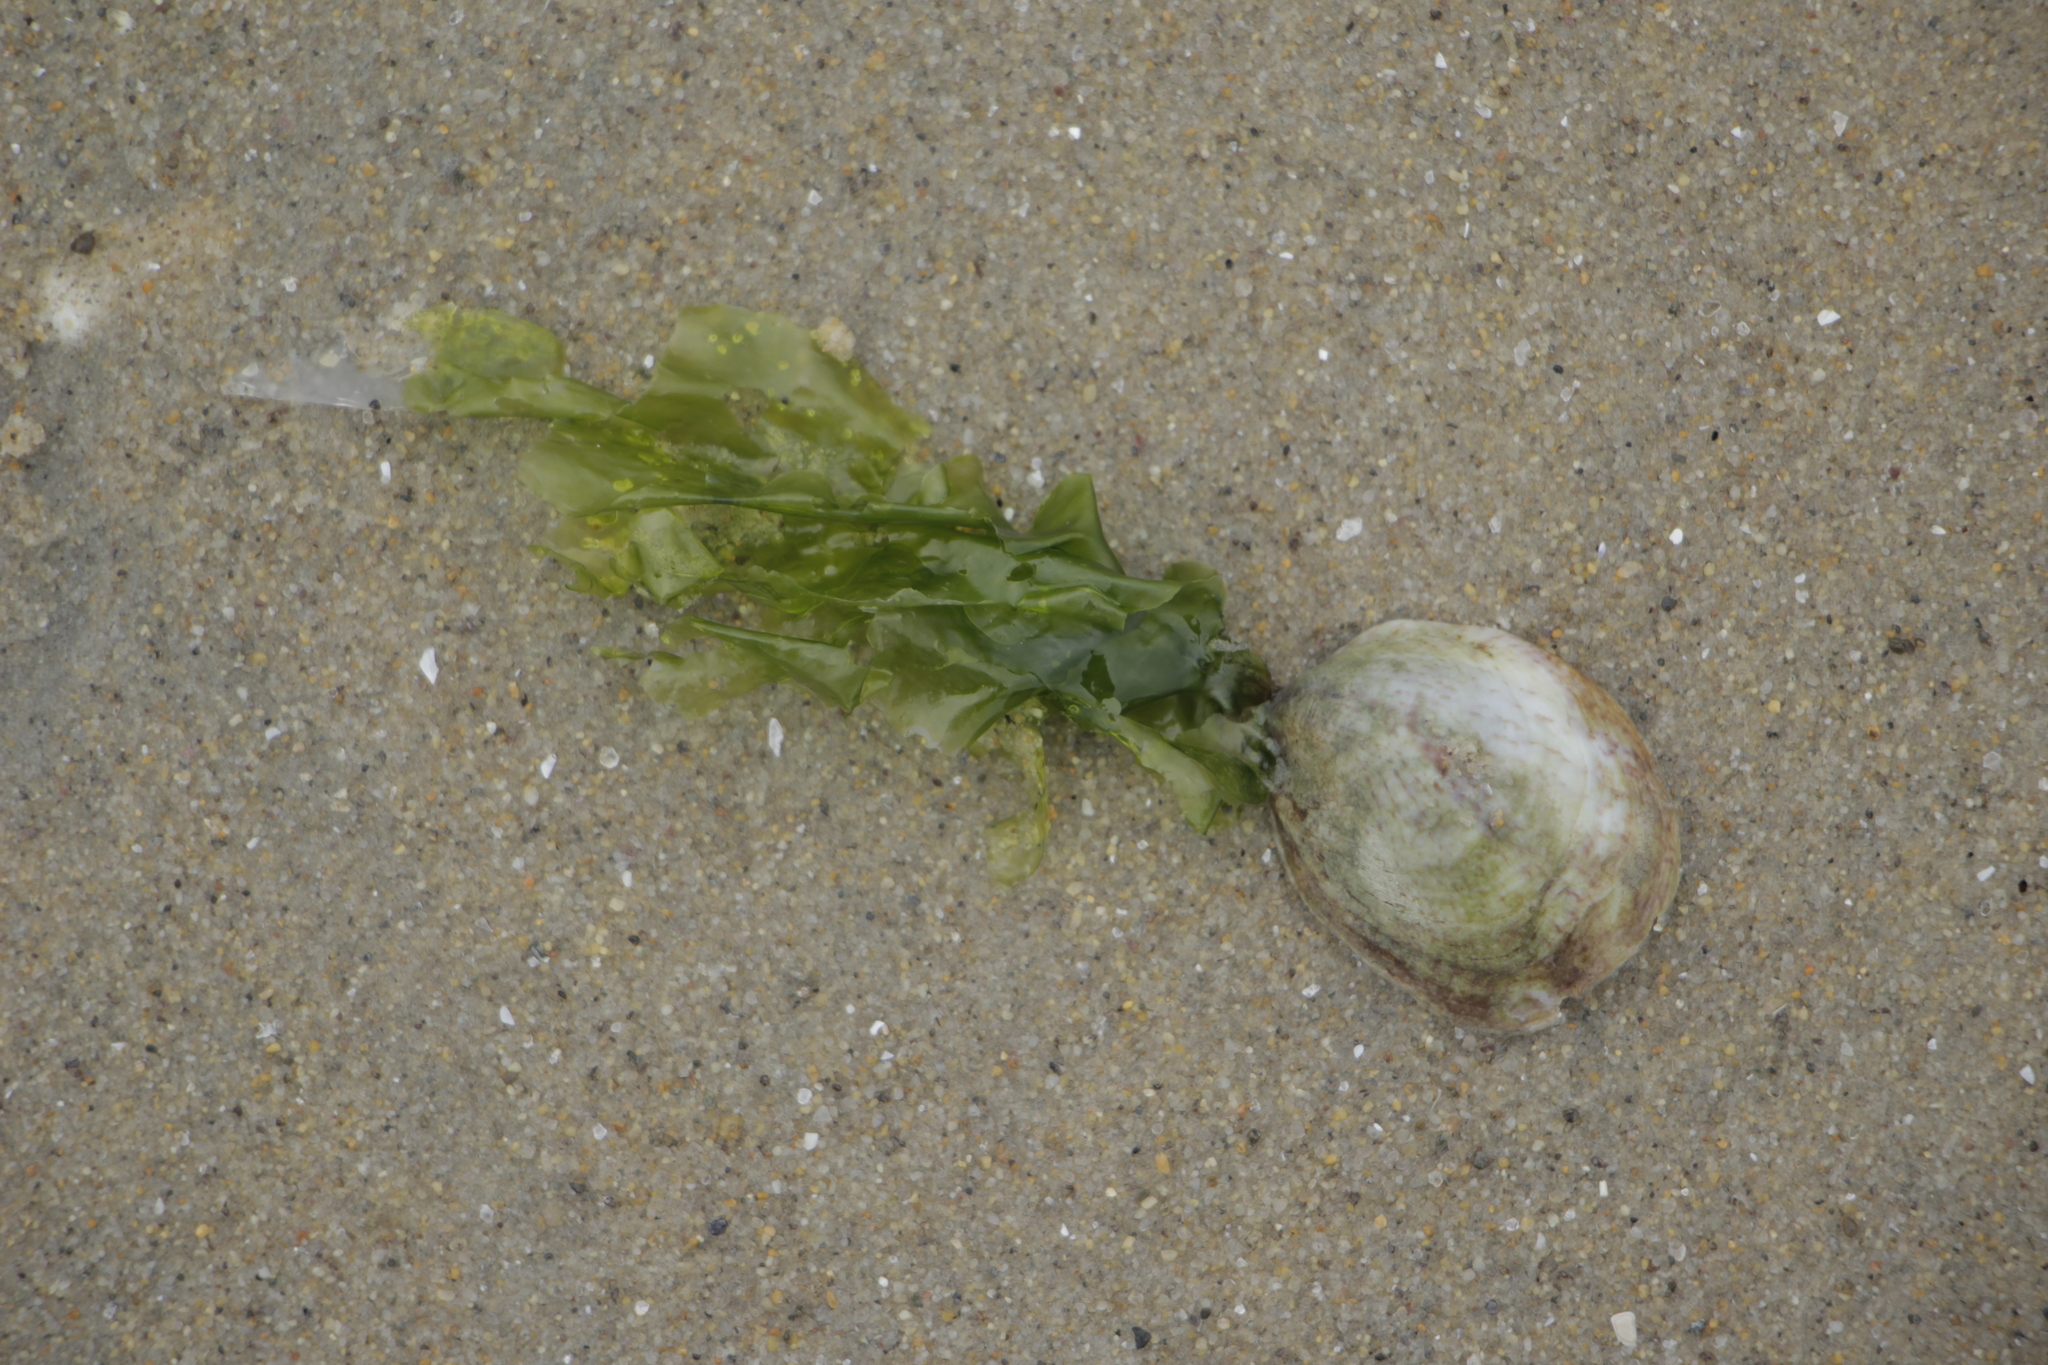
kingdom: Animalia
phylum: Mollusca
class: Gastropoda
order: Littorinimorpha
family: Calyptraeidae
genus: Crepidula
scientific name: Crepidula fornicata
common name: Slipper limpet
